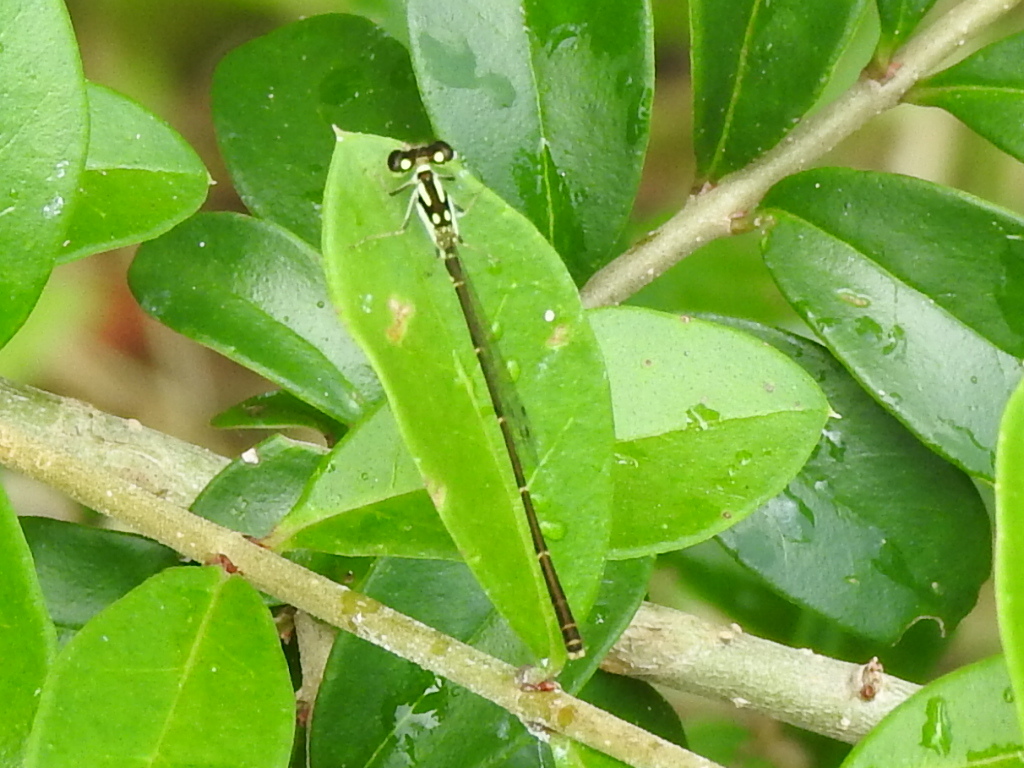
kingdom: Animalia
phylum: Arthropoda
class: Insecta
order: Odonata
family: Coenagrionidae
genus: Ischnura
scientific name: Ischnura posita
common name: Fragile forktail
